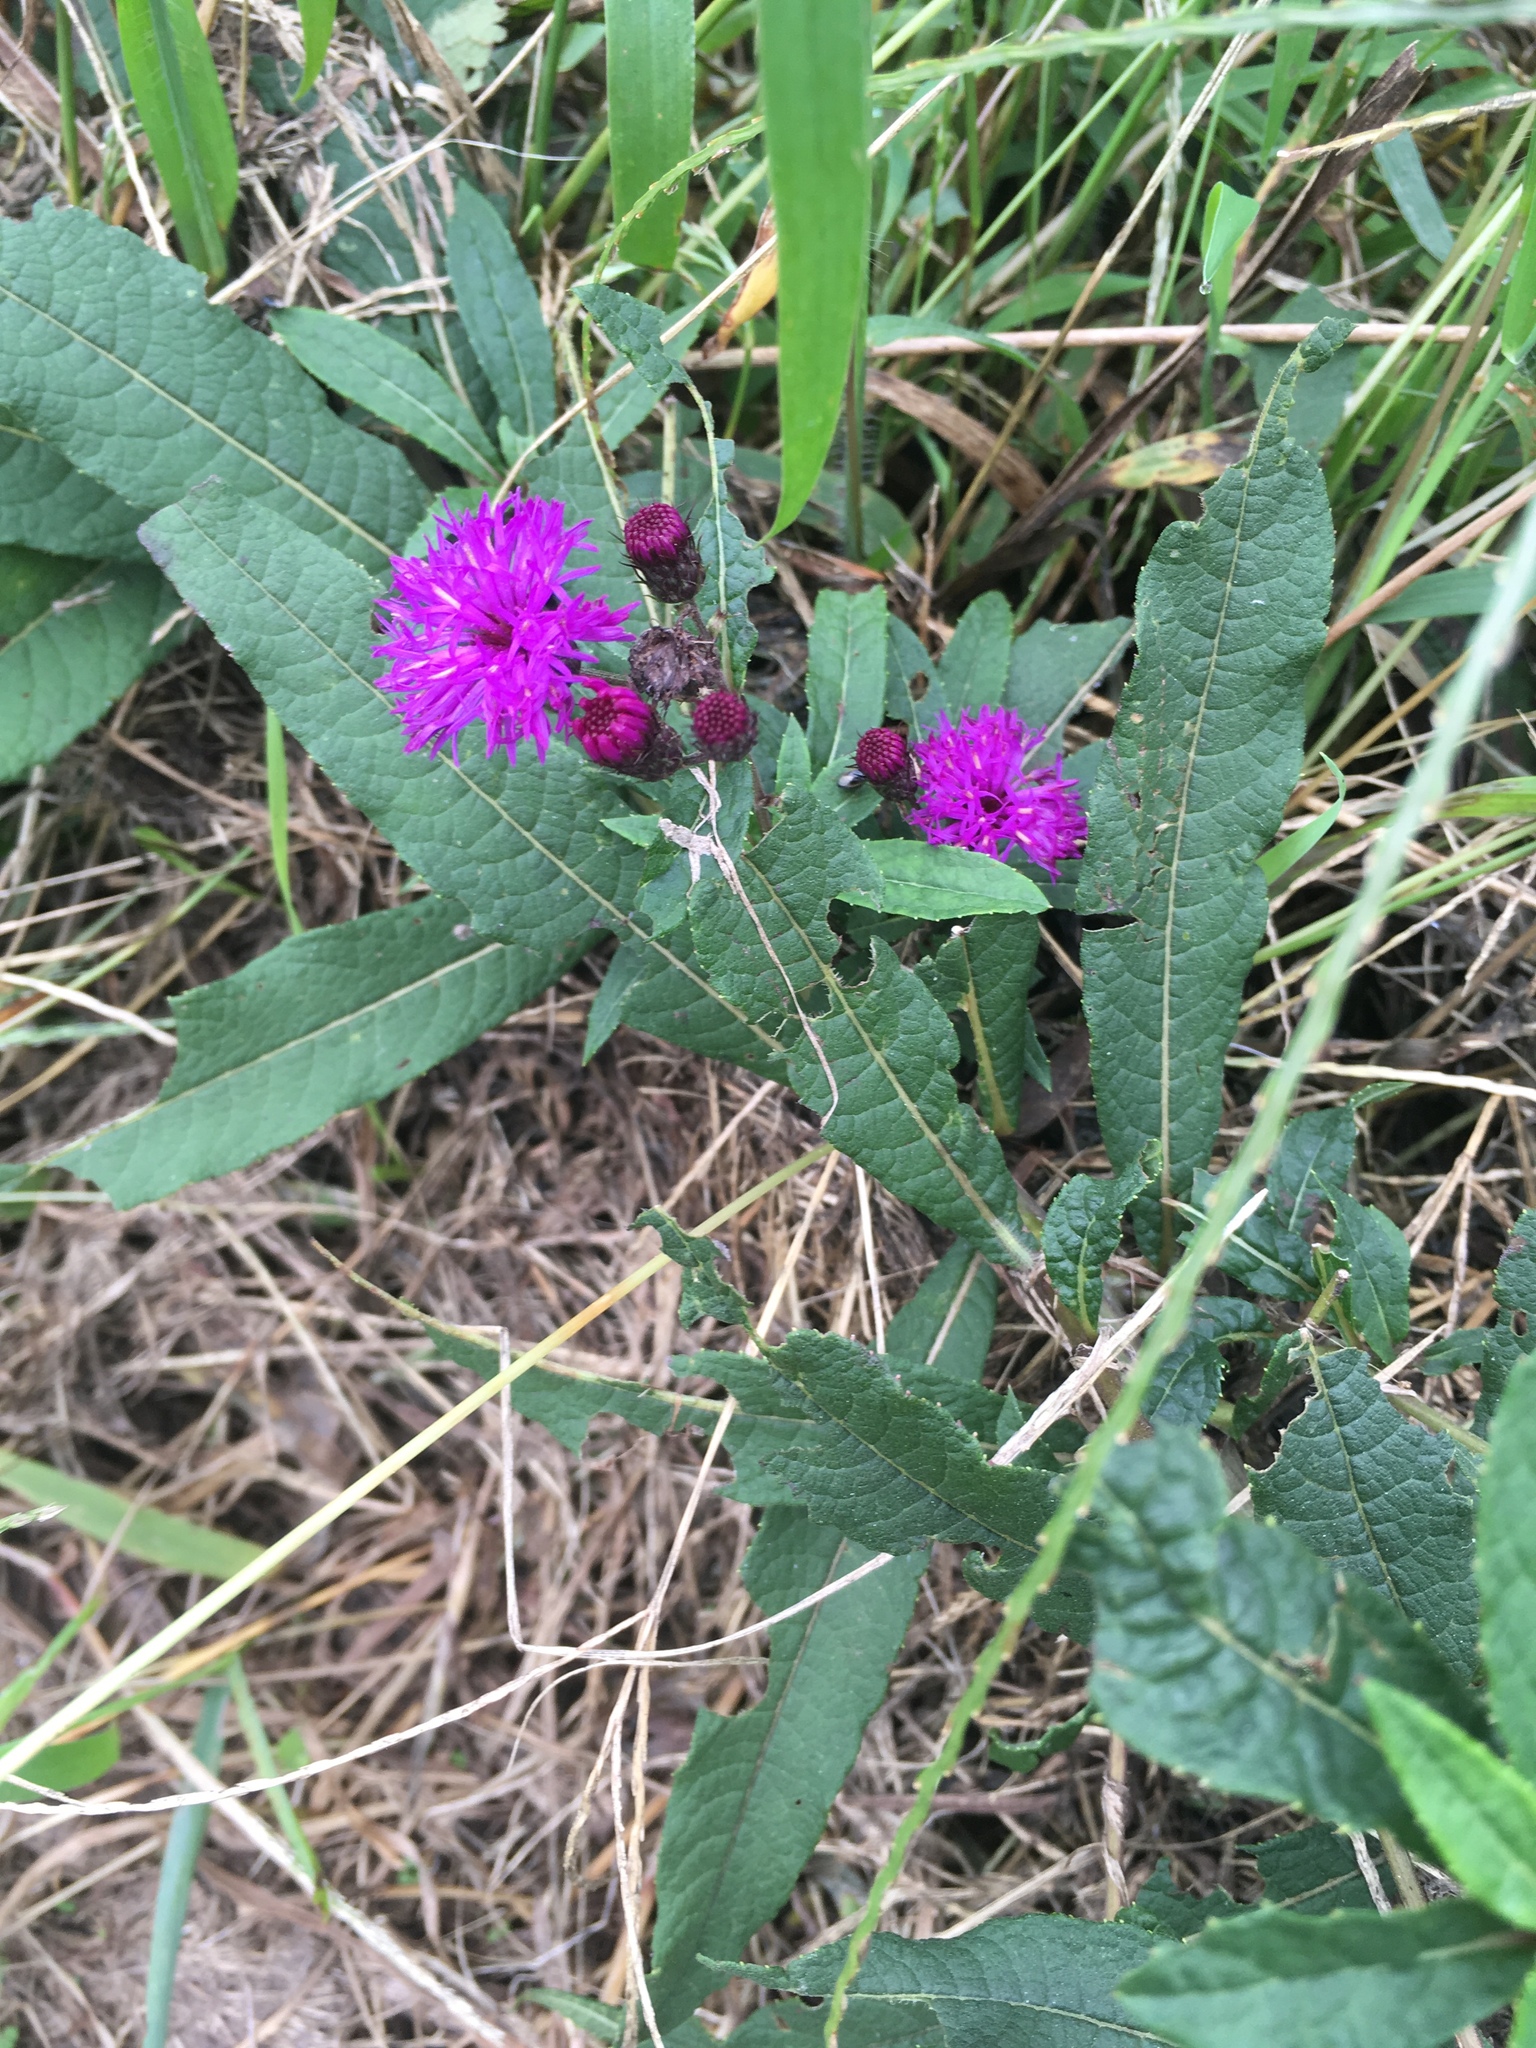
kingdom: Plantae
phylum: Tracheophyta
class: Magnoliopsida
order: Asterales
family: Asteraceae
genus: Vernonia
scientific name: Vernonia noveboracensis
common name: New york ironweed
